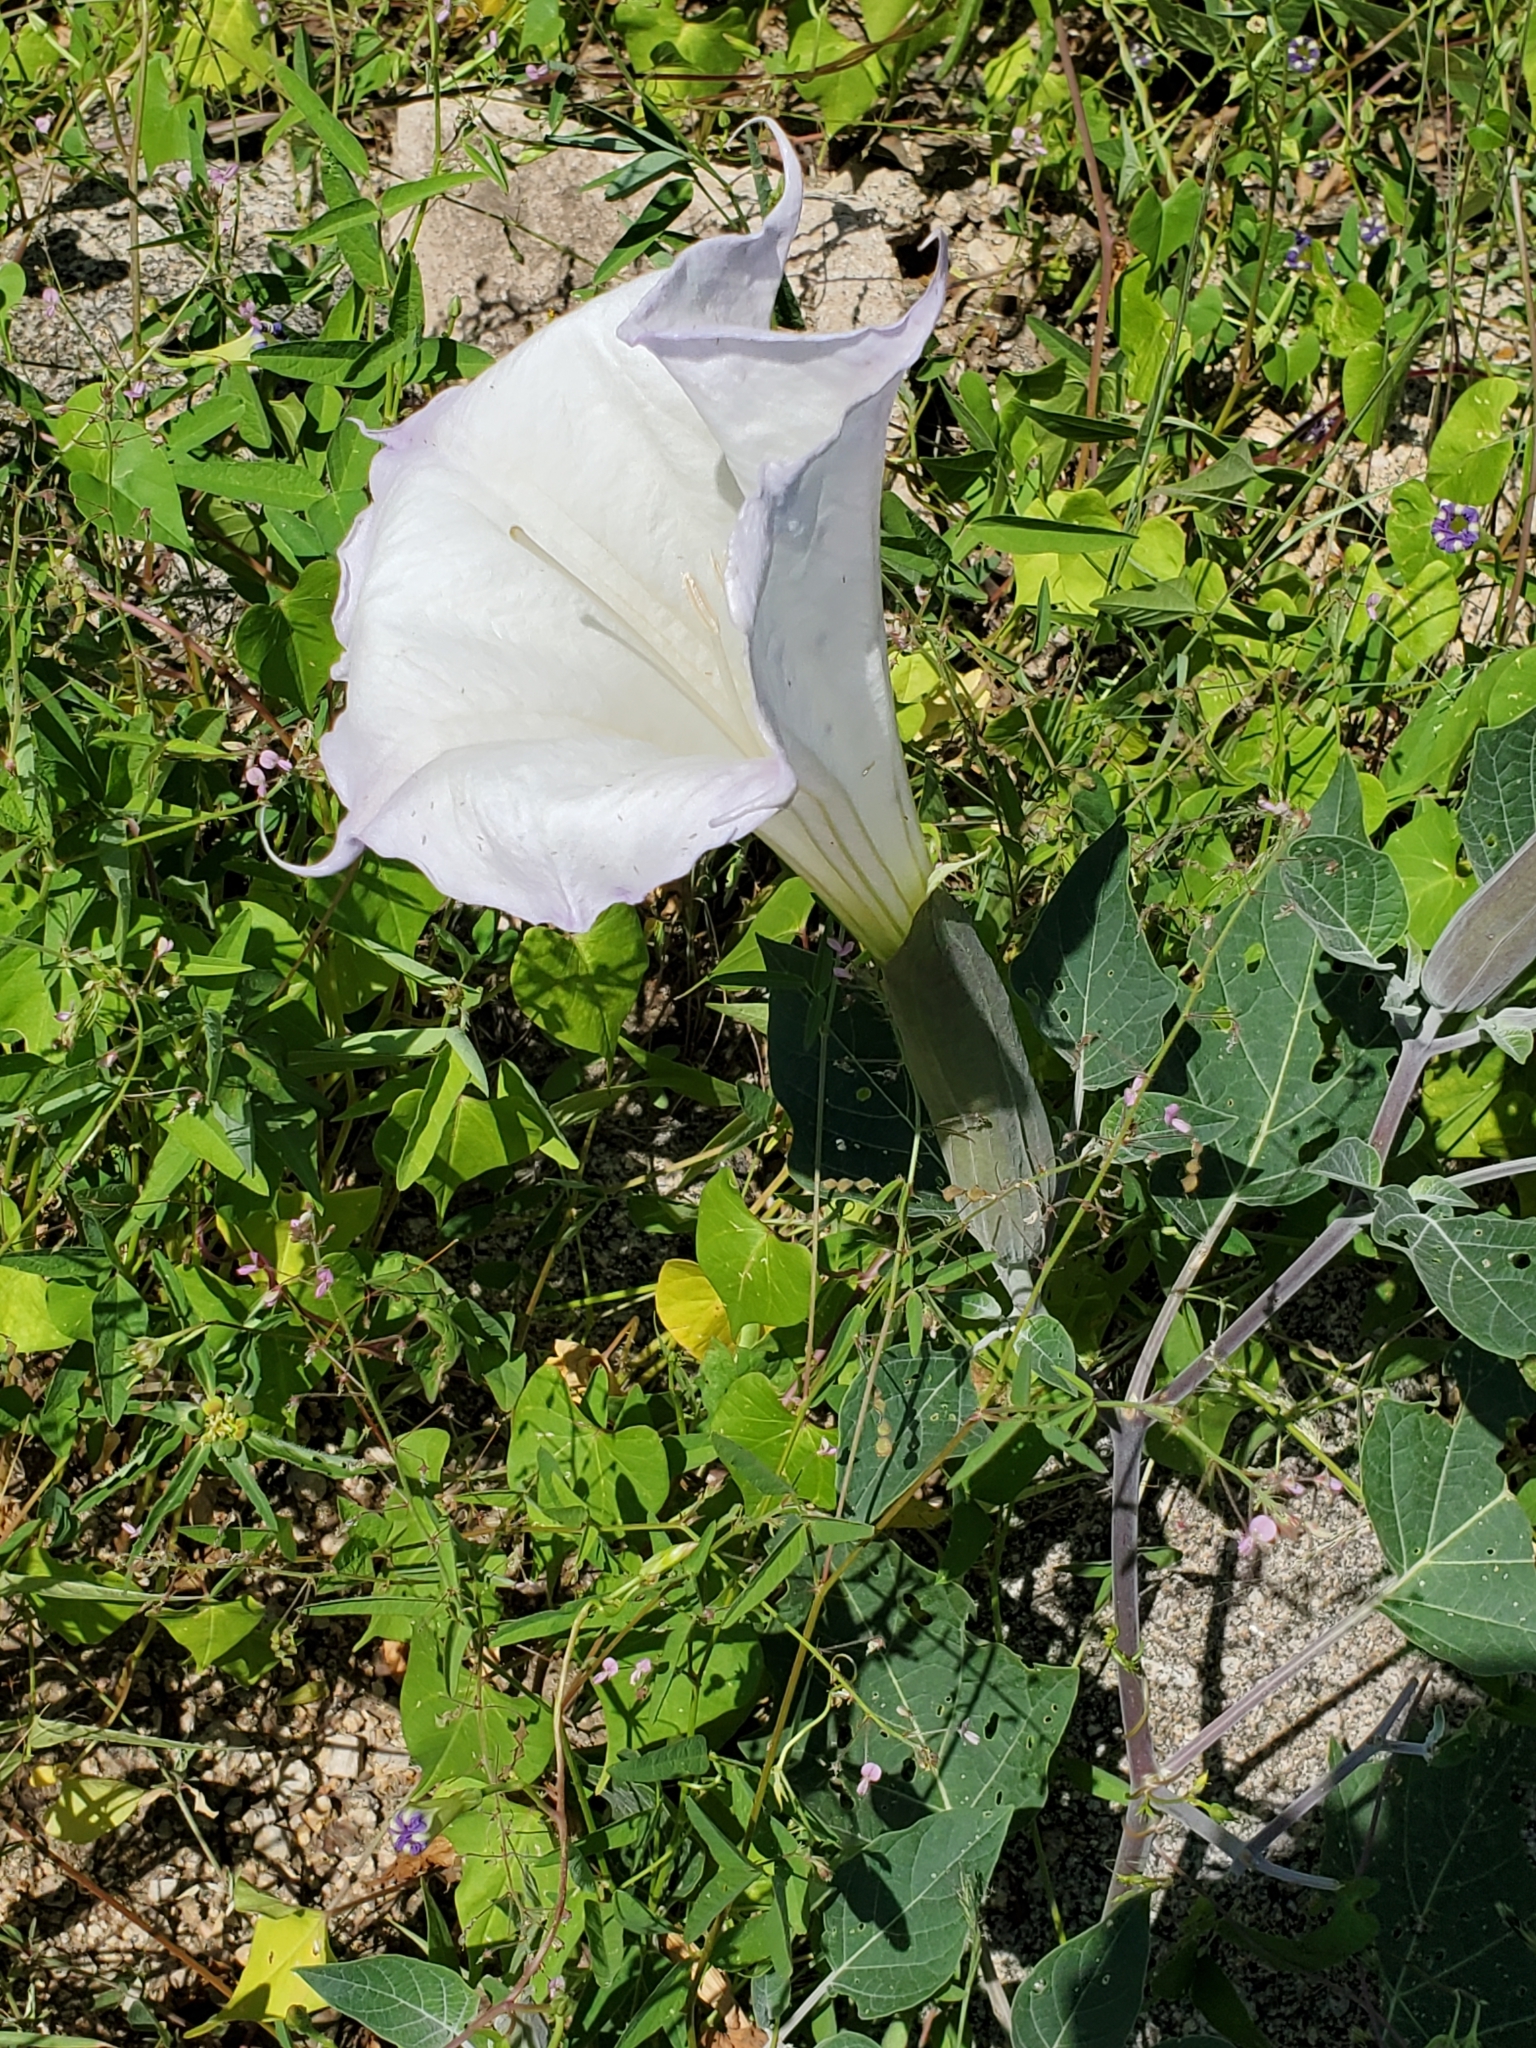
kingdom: Plantae
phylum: Tracheophyta
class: Magnoliopsida
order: Solanales
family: Solanaceae
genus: Datura
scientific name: Datura wrightii
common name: Sacred thorn-apple
